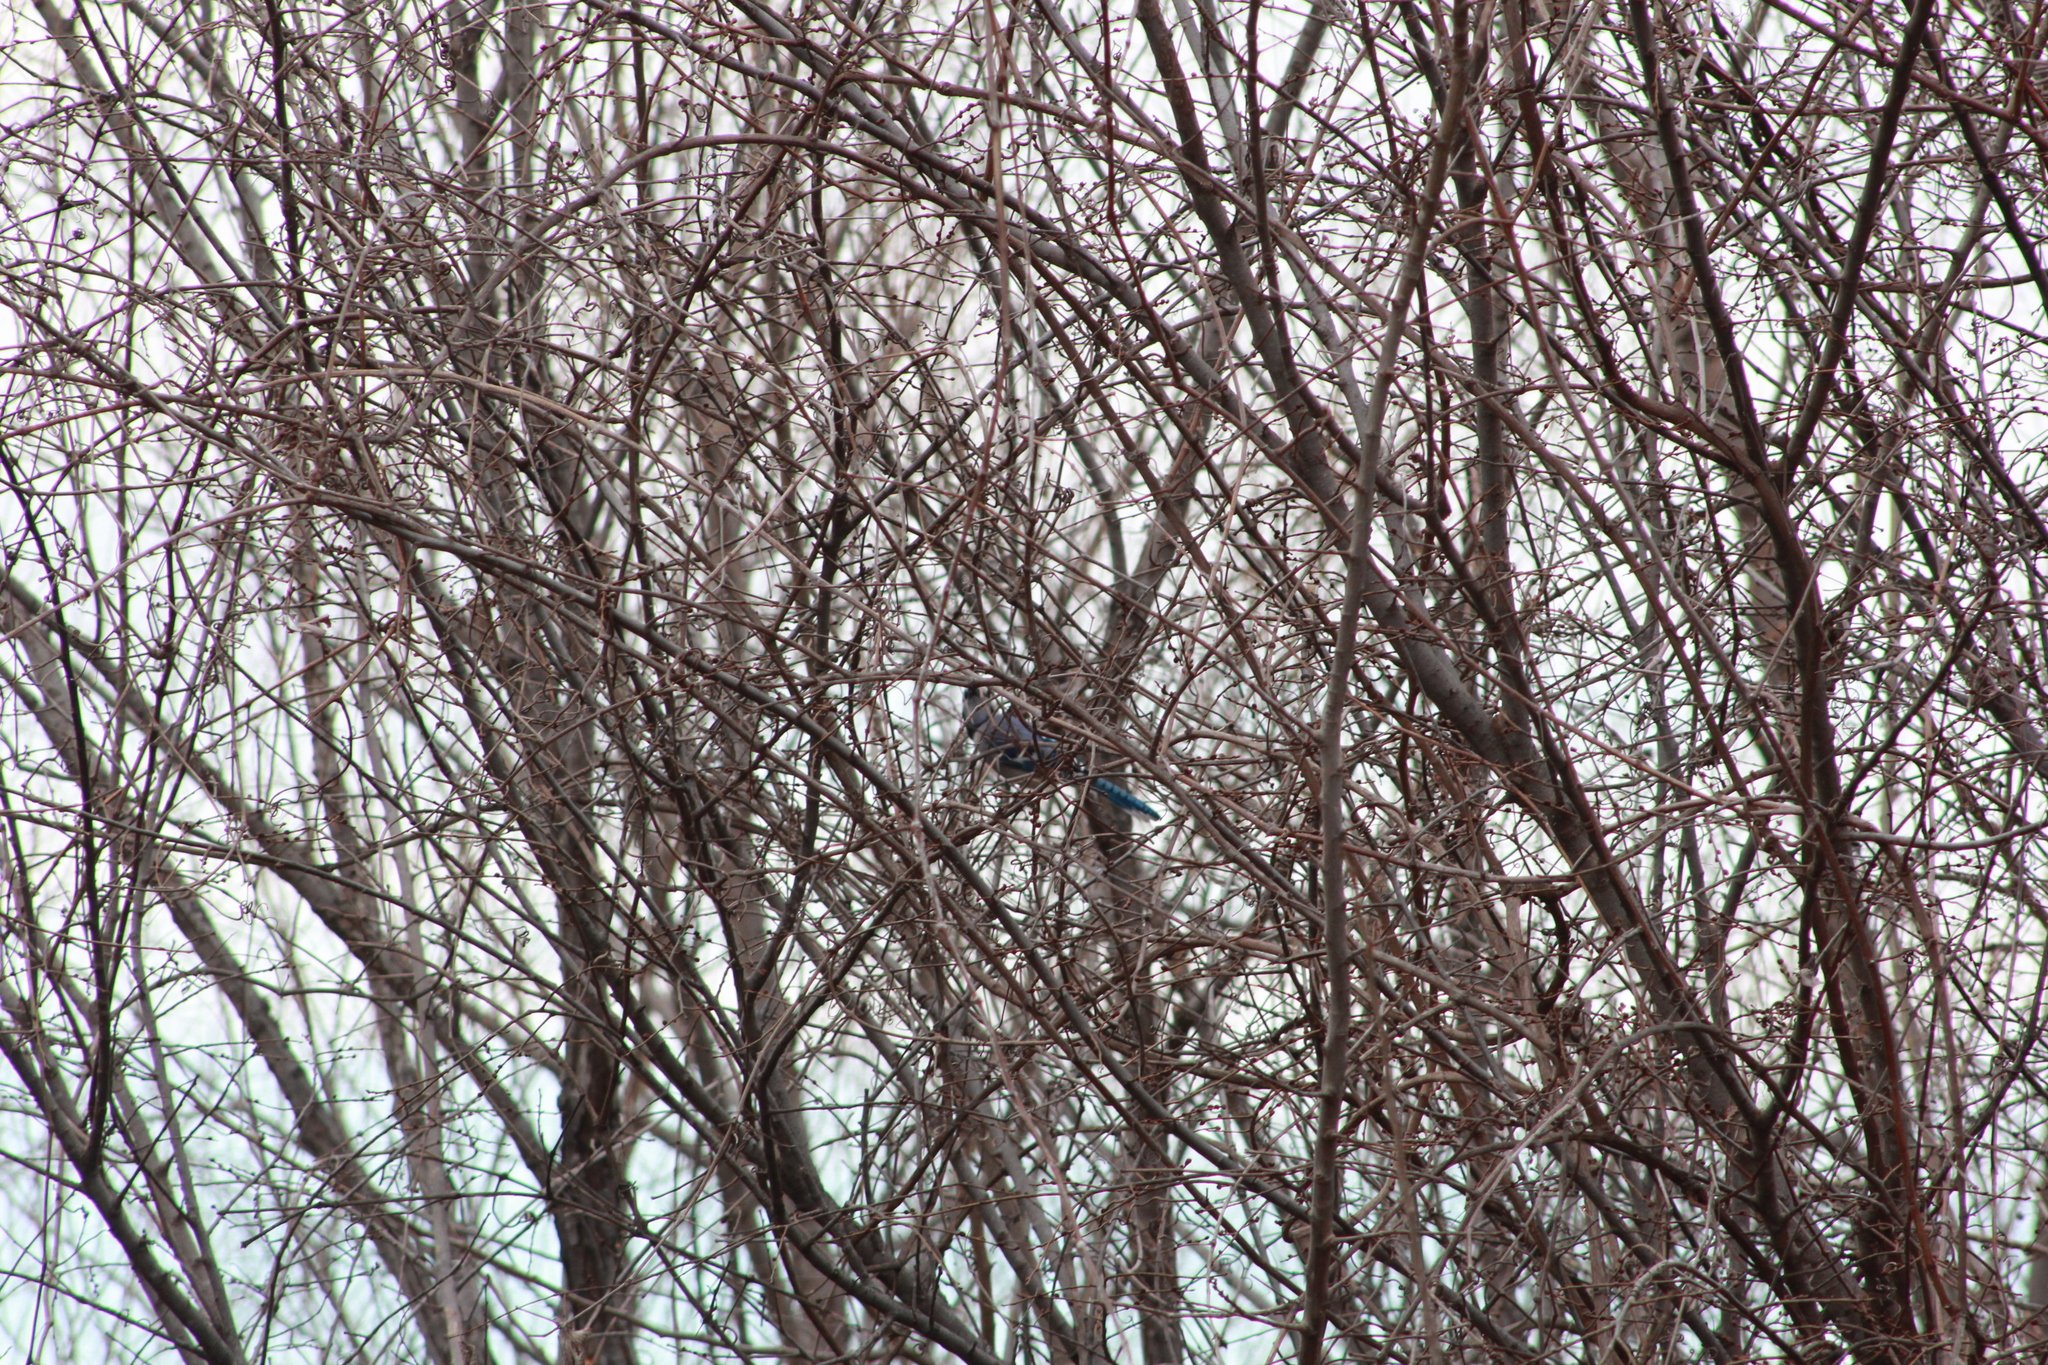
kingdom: Animalia
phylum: Chordata
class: Aves
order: Passeriformes
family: Corvidae
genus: Cyanocitta
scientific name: Cyanocitta cristata
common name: Blue jay
